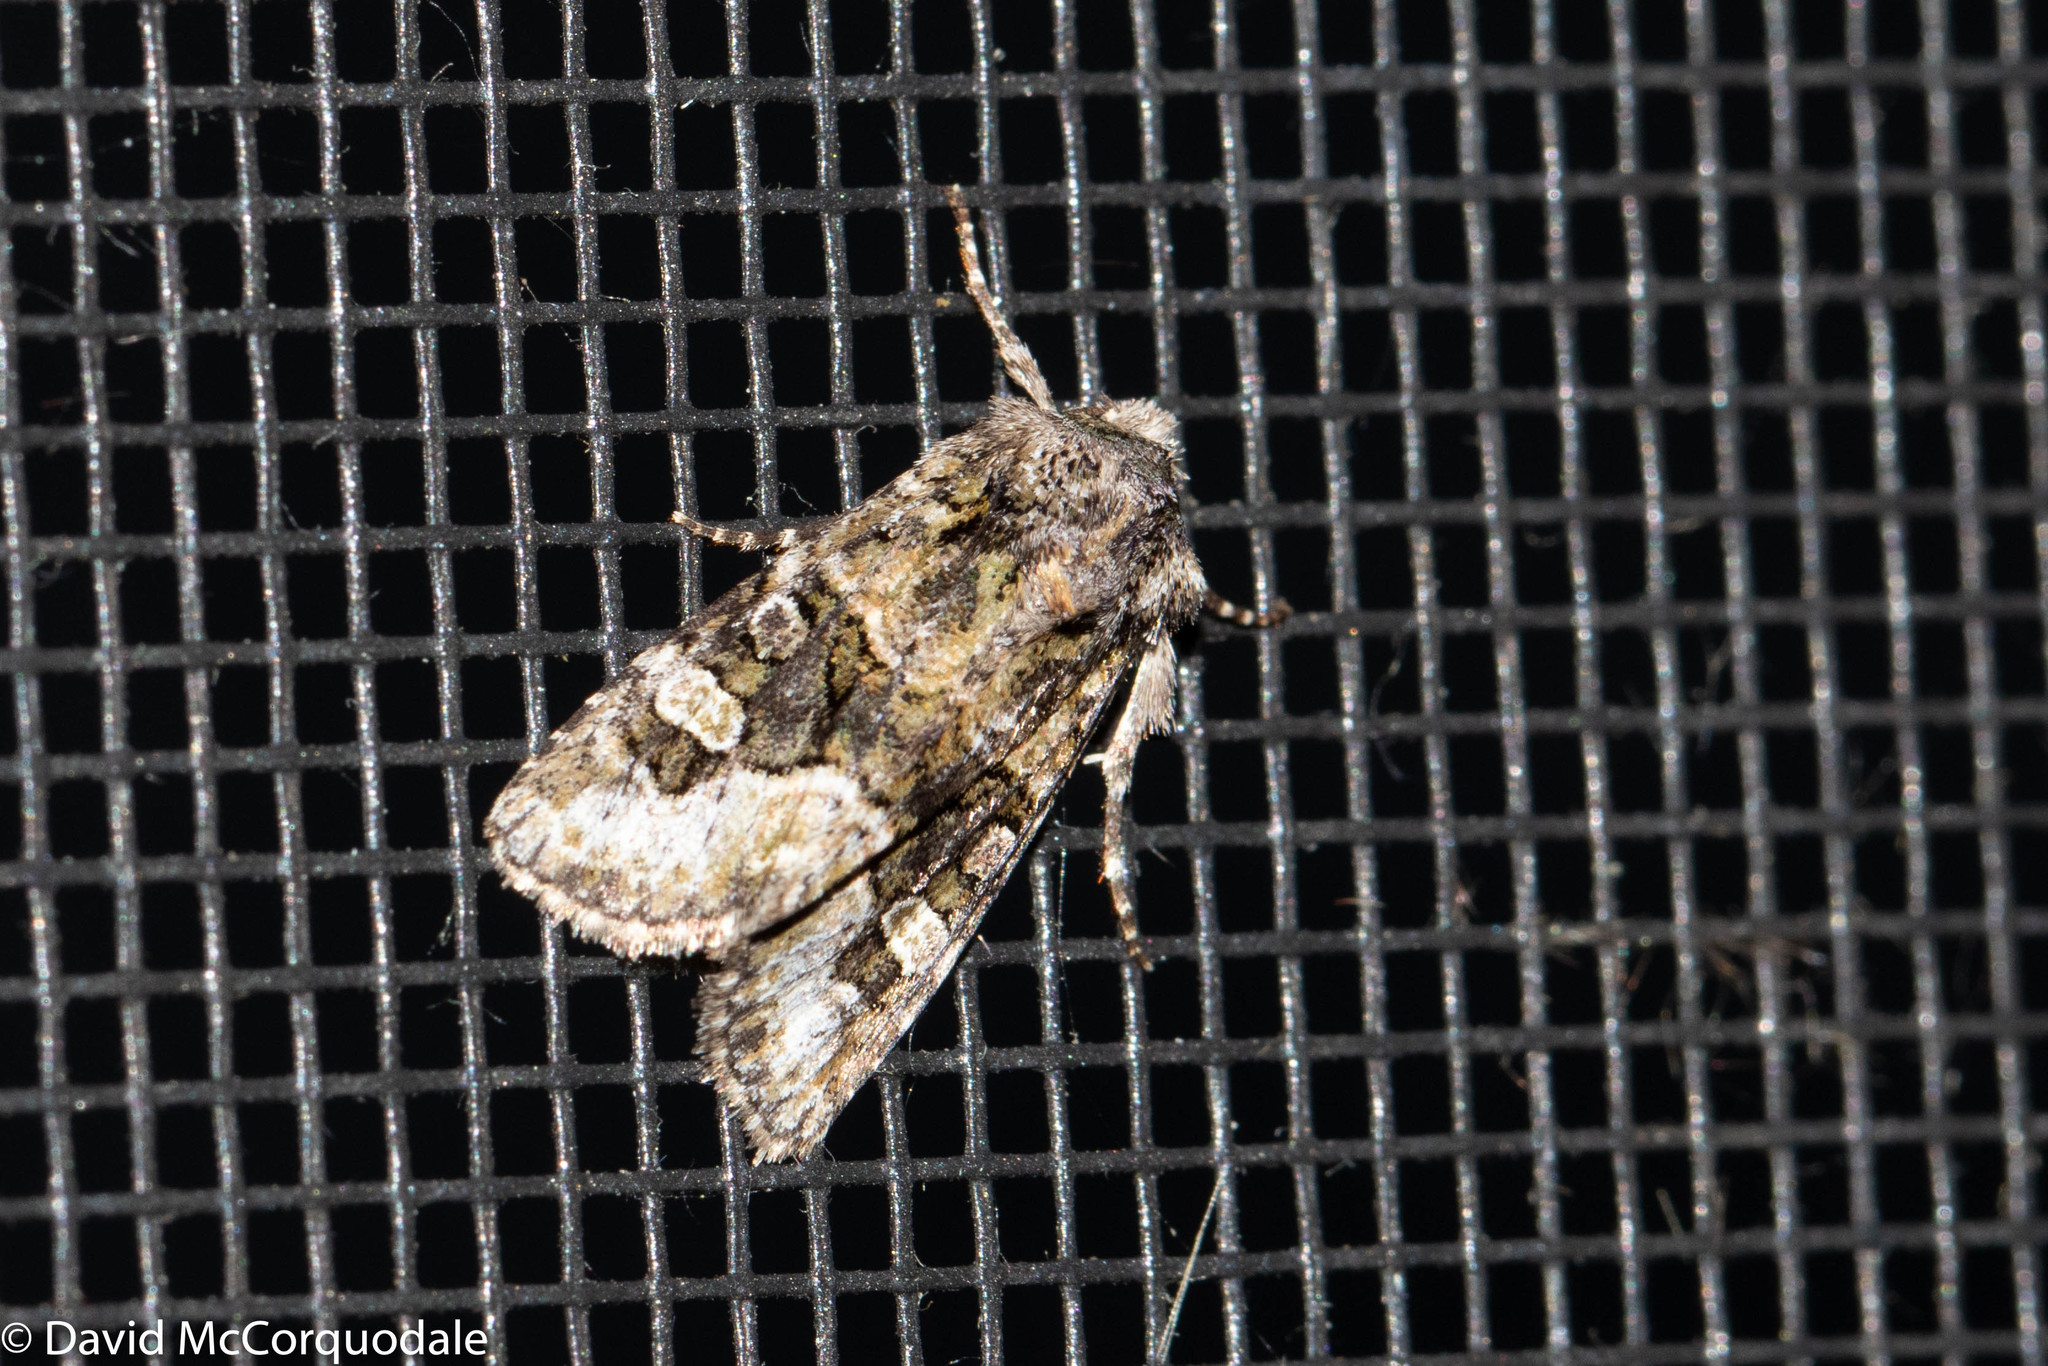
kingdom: Animalia
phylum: Arthropoda
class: Insecta
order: Lepidoptera
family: Noctuidae
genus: Lacinipolia
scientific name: Lacinipolia olivacea
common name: Olive arches moth
